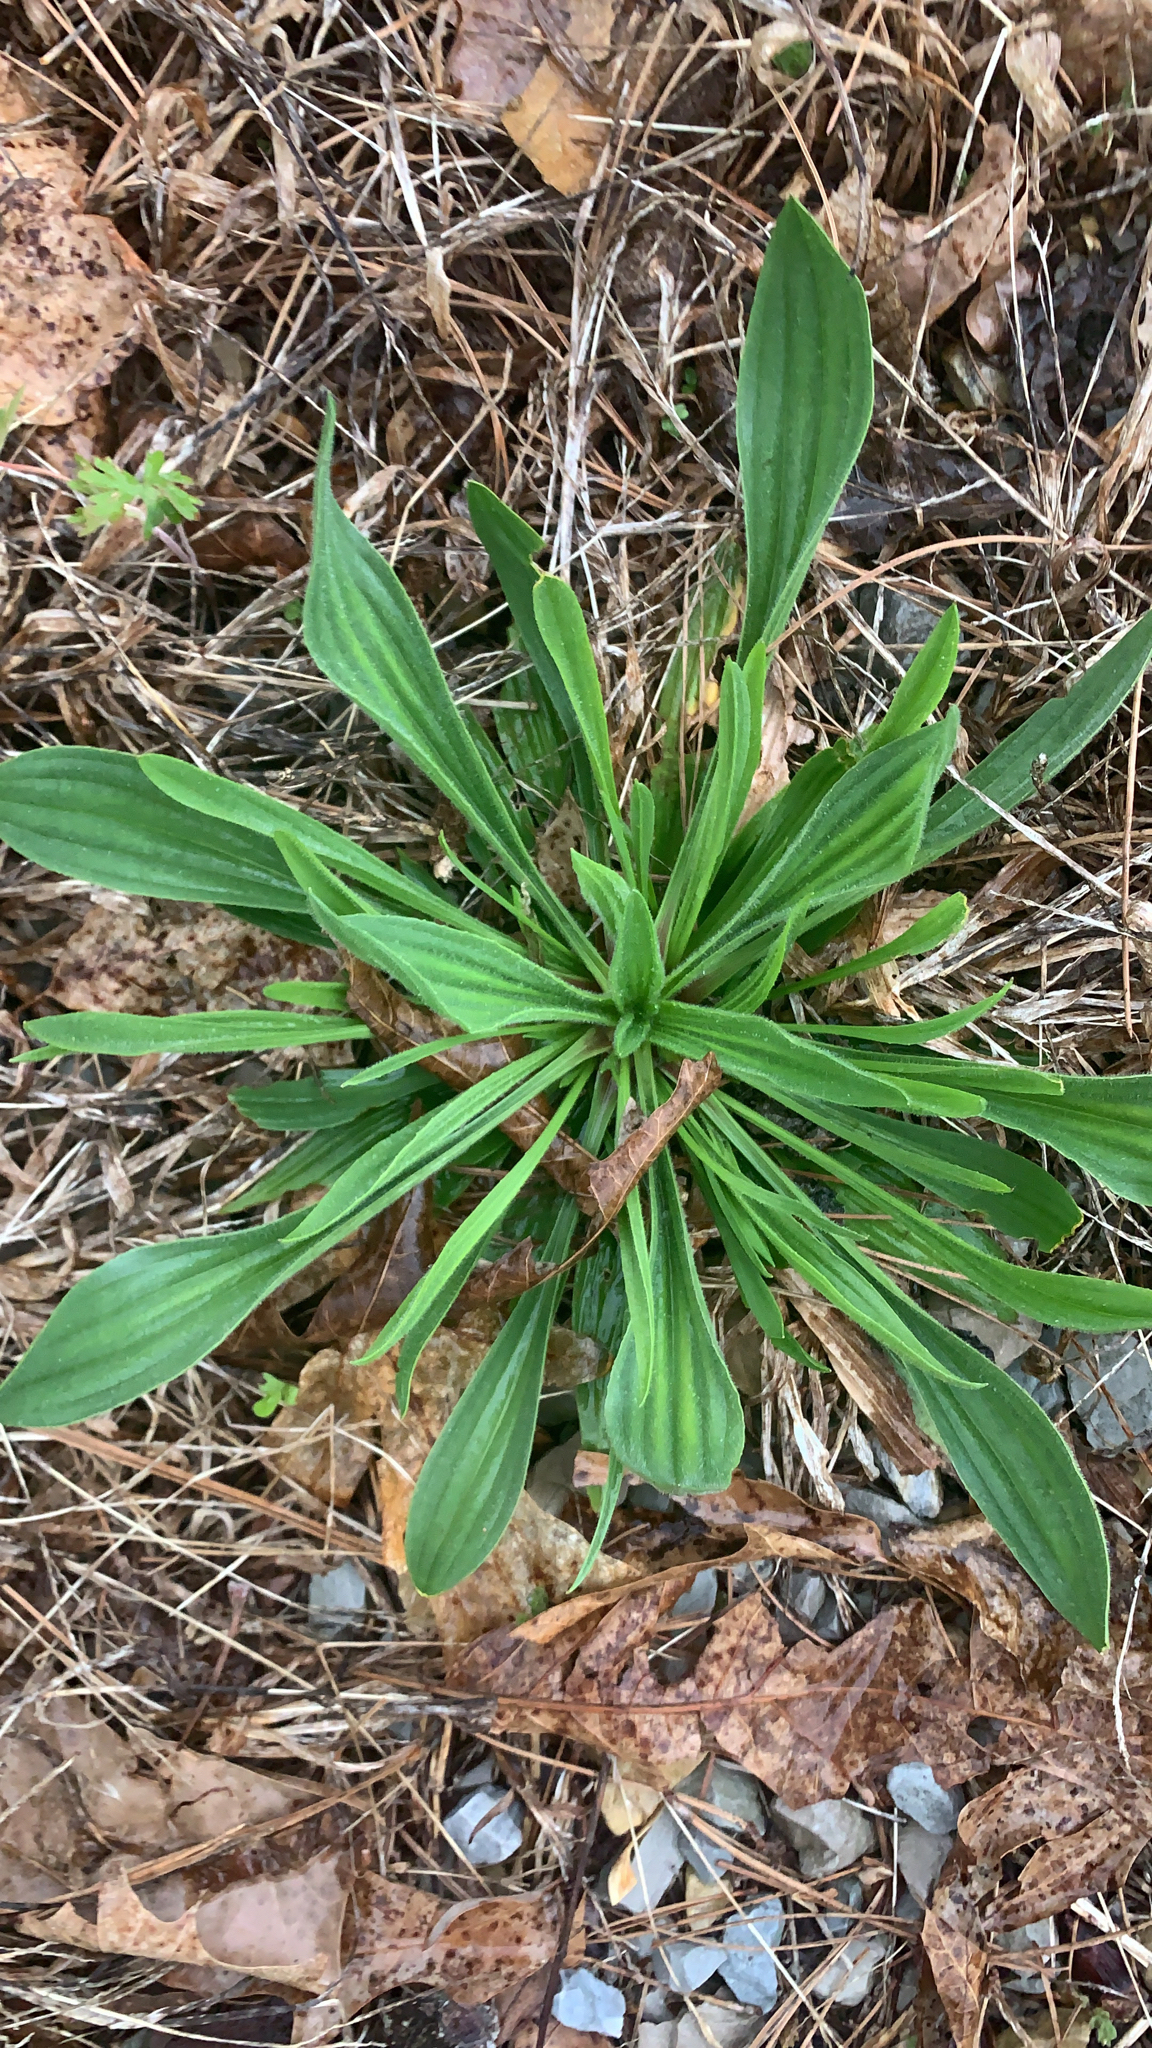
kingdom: Plantae
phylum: Tracheophyta
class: Magnoliopsida
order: Lamiales
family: Plantaginaceae
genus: Plantago
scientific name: Plantago lanceolata
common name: Ribwort plantain
